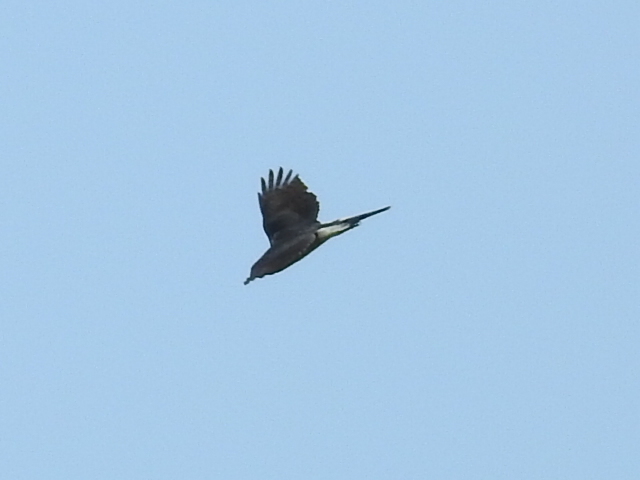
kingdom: Animalia
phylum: Chordata
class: Aves
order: Accipitriformes
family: Accipitridae
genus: Accipiter
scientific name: Accipiter cooperii
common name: Cooper's hawk
